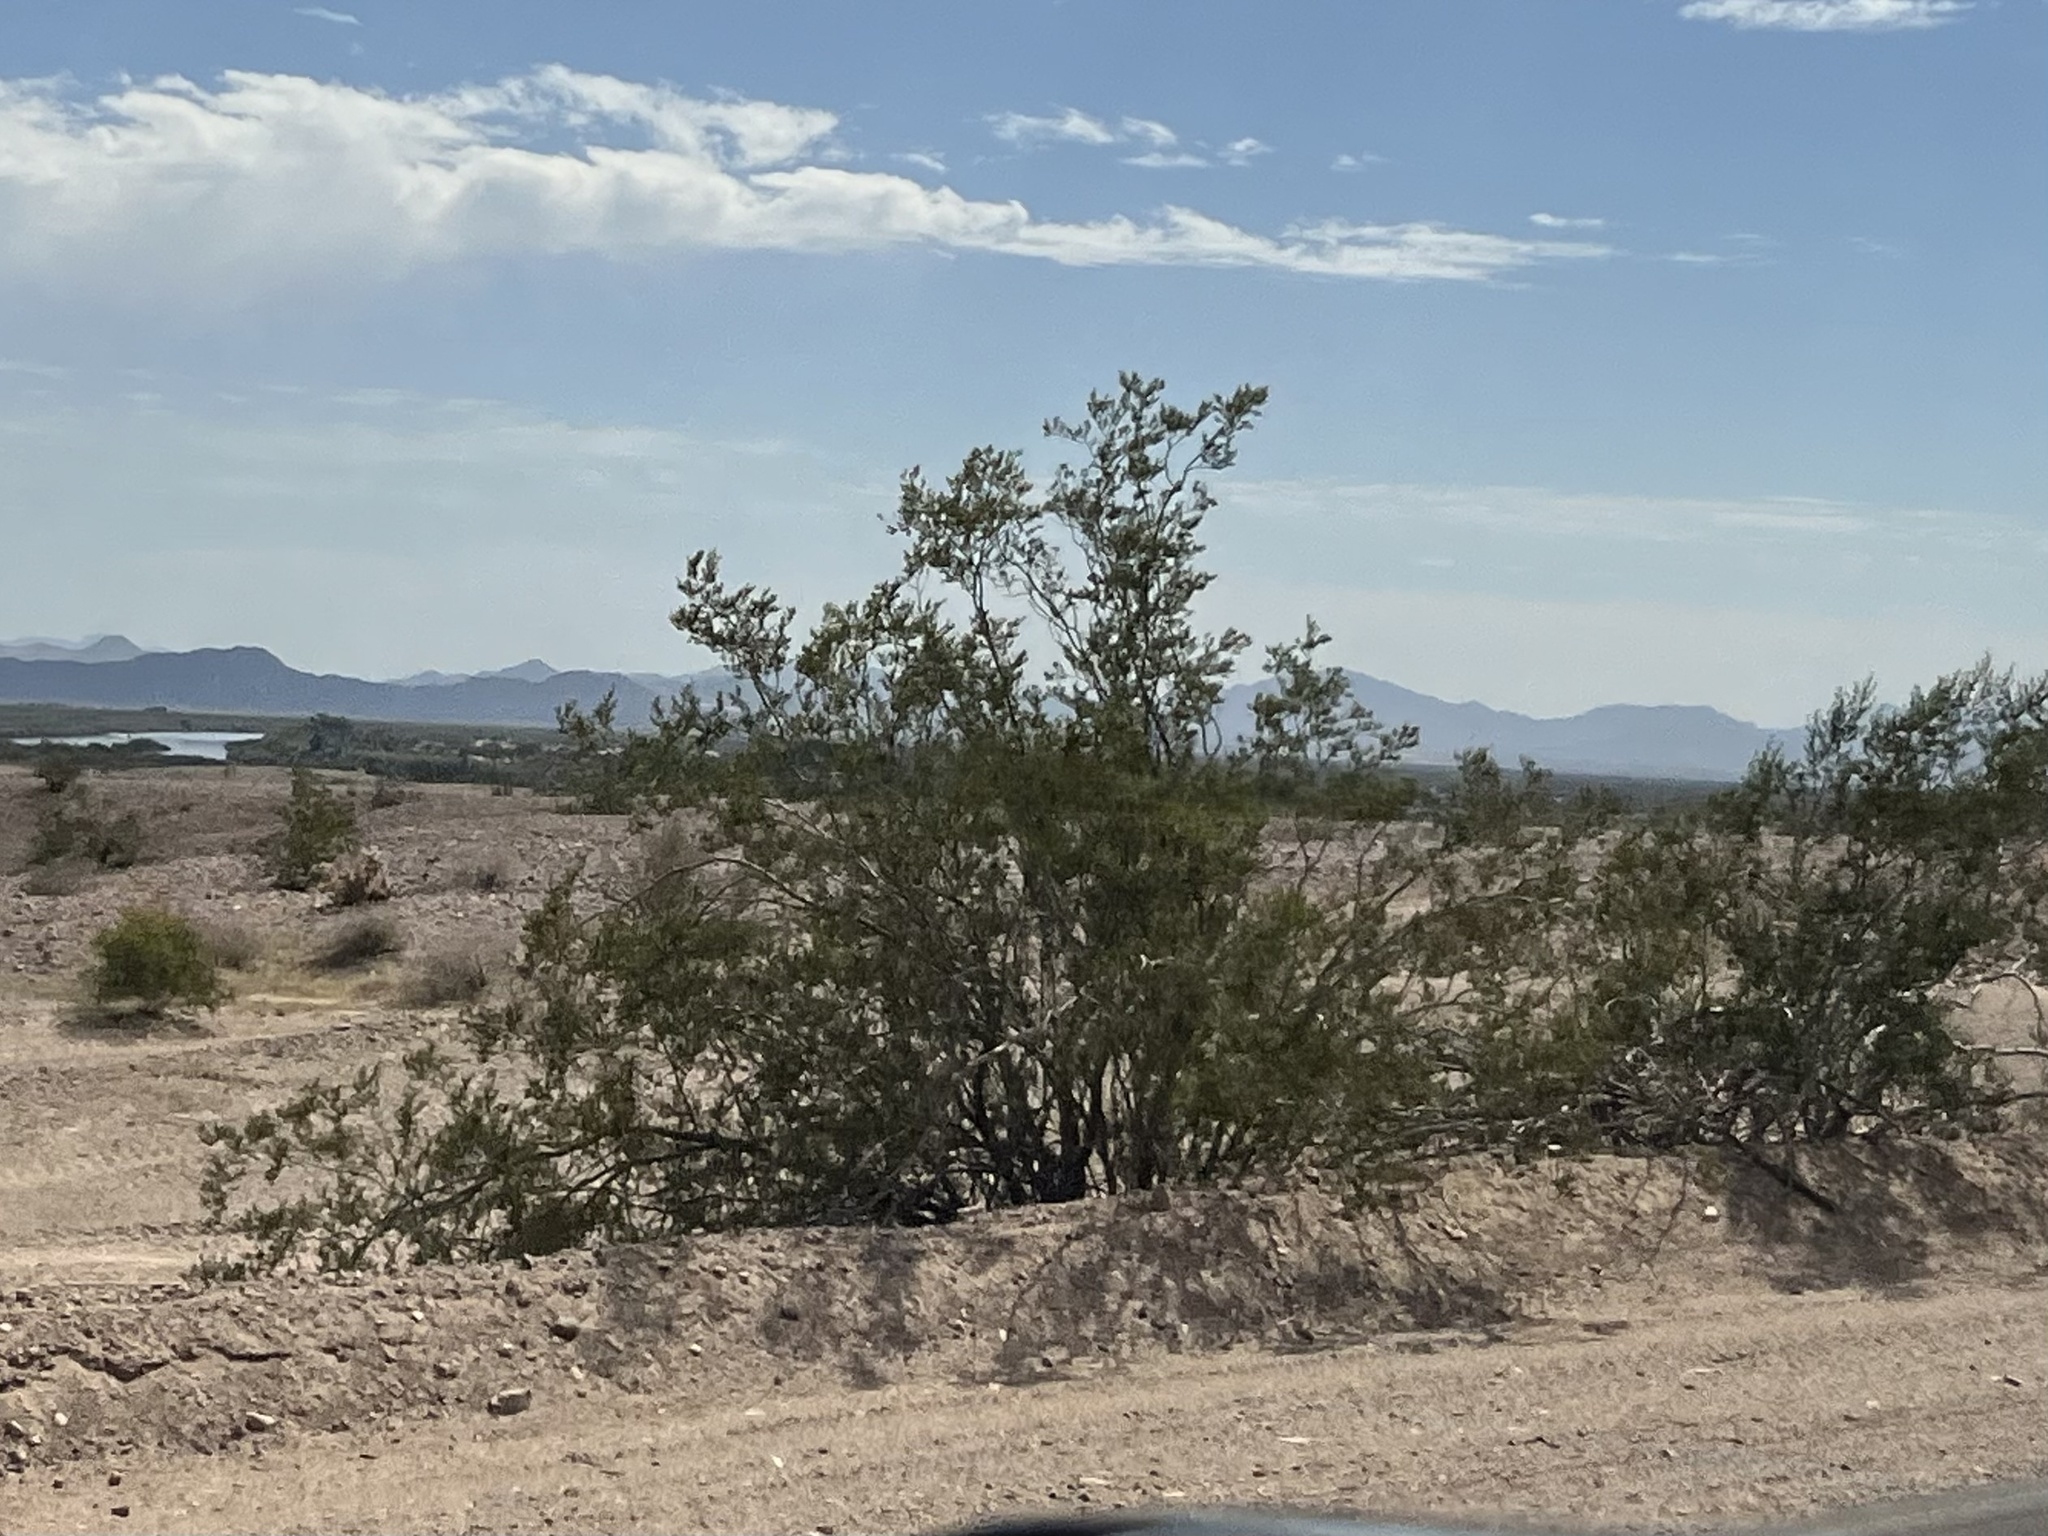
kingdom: Plantae
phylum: Tracheophyta
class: Magnoliopsida
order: Zygophyllales
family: Zygophyllaceae
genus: Larrea
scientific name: Larrea tridentata
